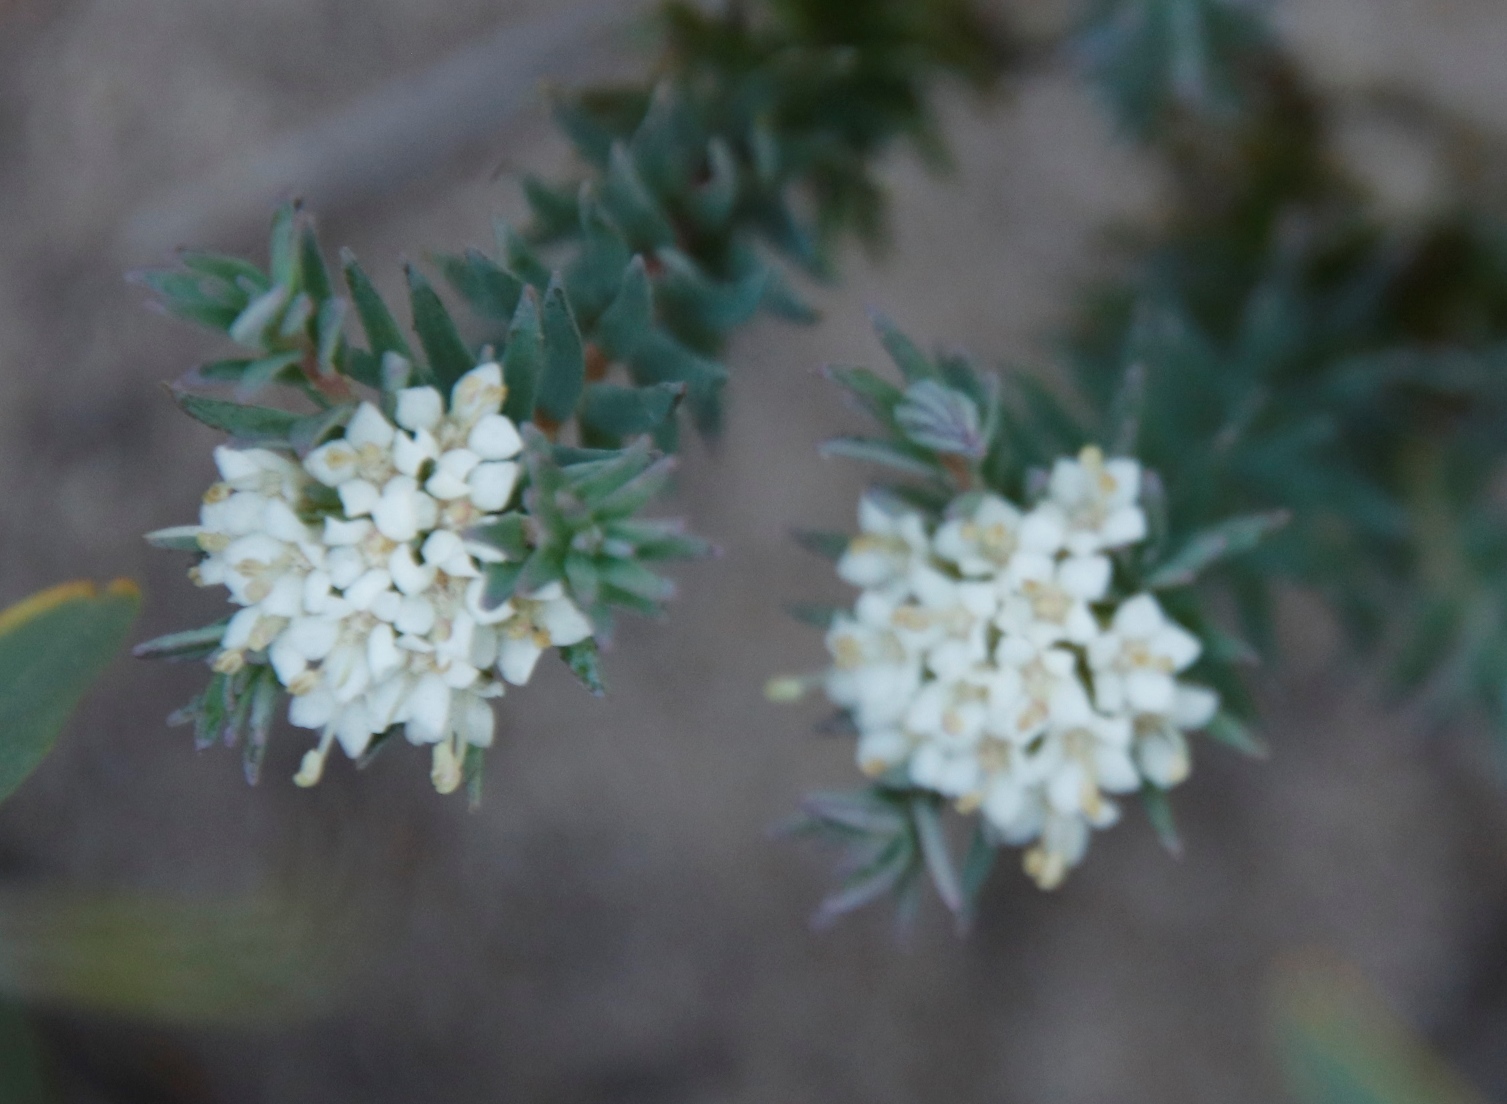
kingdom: Plantae
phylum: Tracheophyta
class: Magnoliopsida
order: Sapindales
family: Rutaceae
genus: Macrostylis
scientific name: Macrostylis villosa
